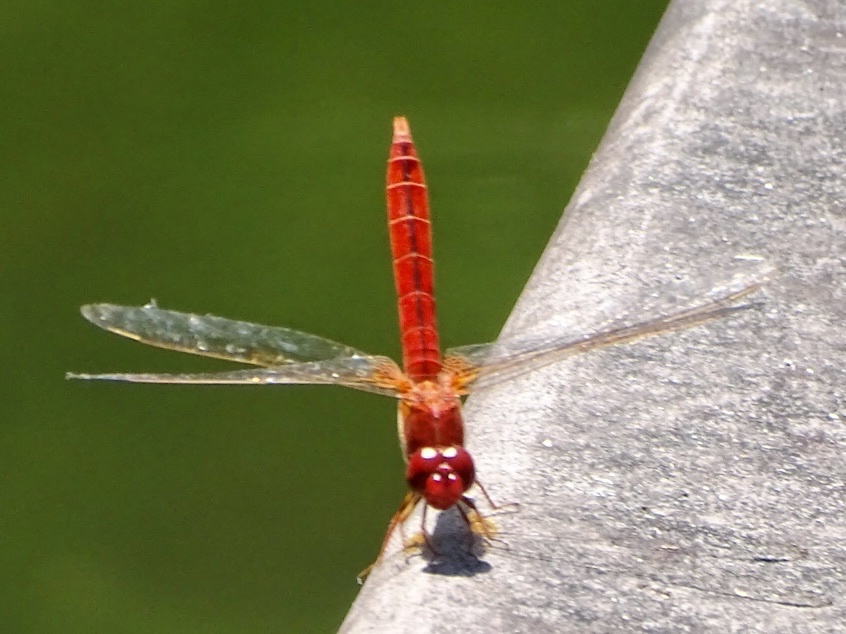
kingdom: Animalia
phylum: Arthropoda
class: Insecta
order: Odonata
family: Libellulidae
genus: Crocothemis
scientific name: Crocothemis servilia
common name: Scarlet skimmer
